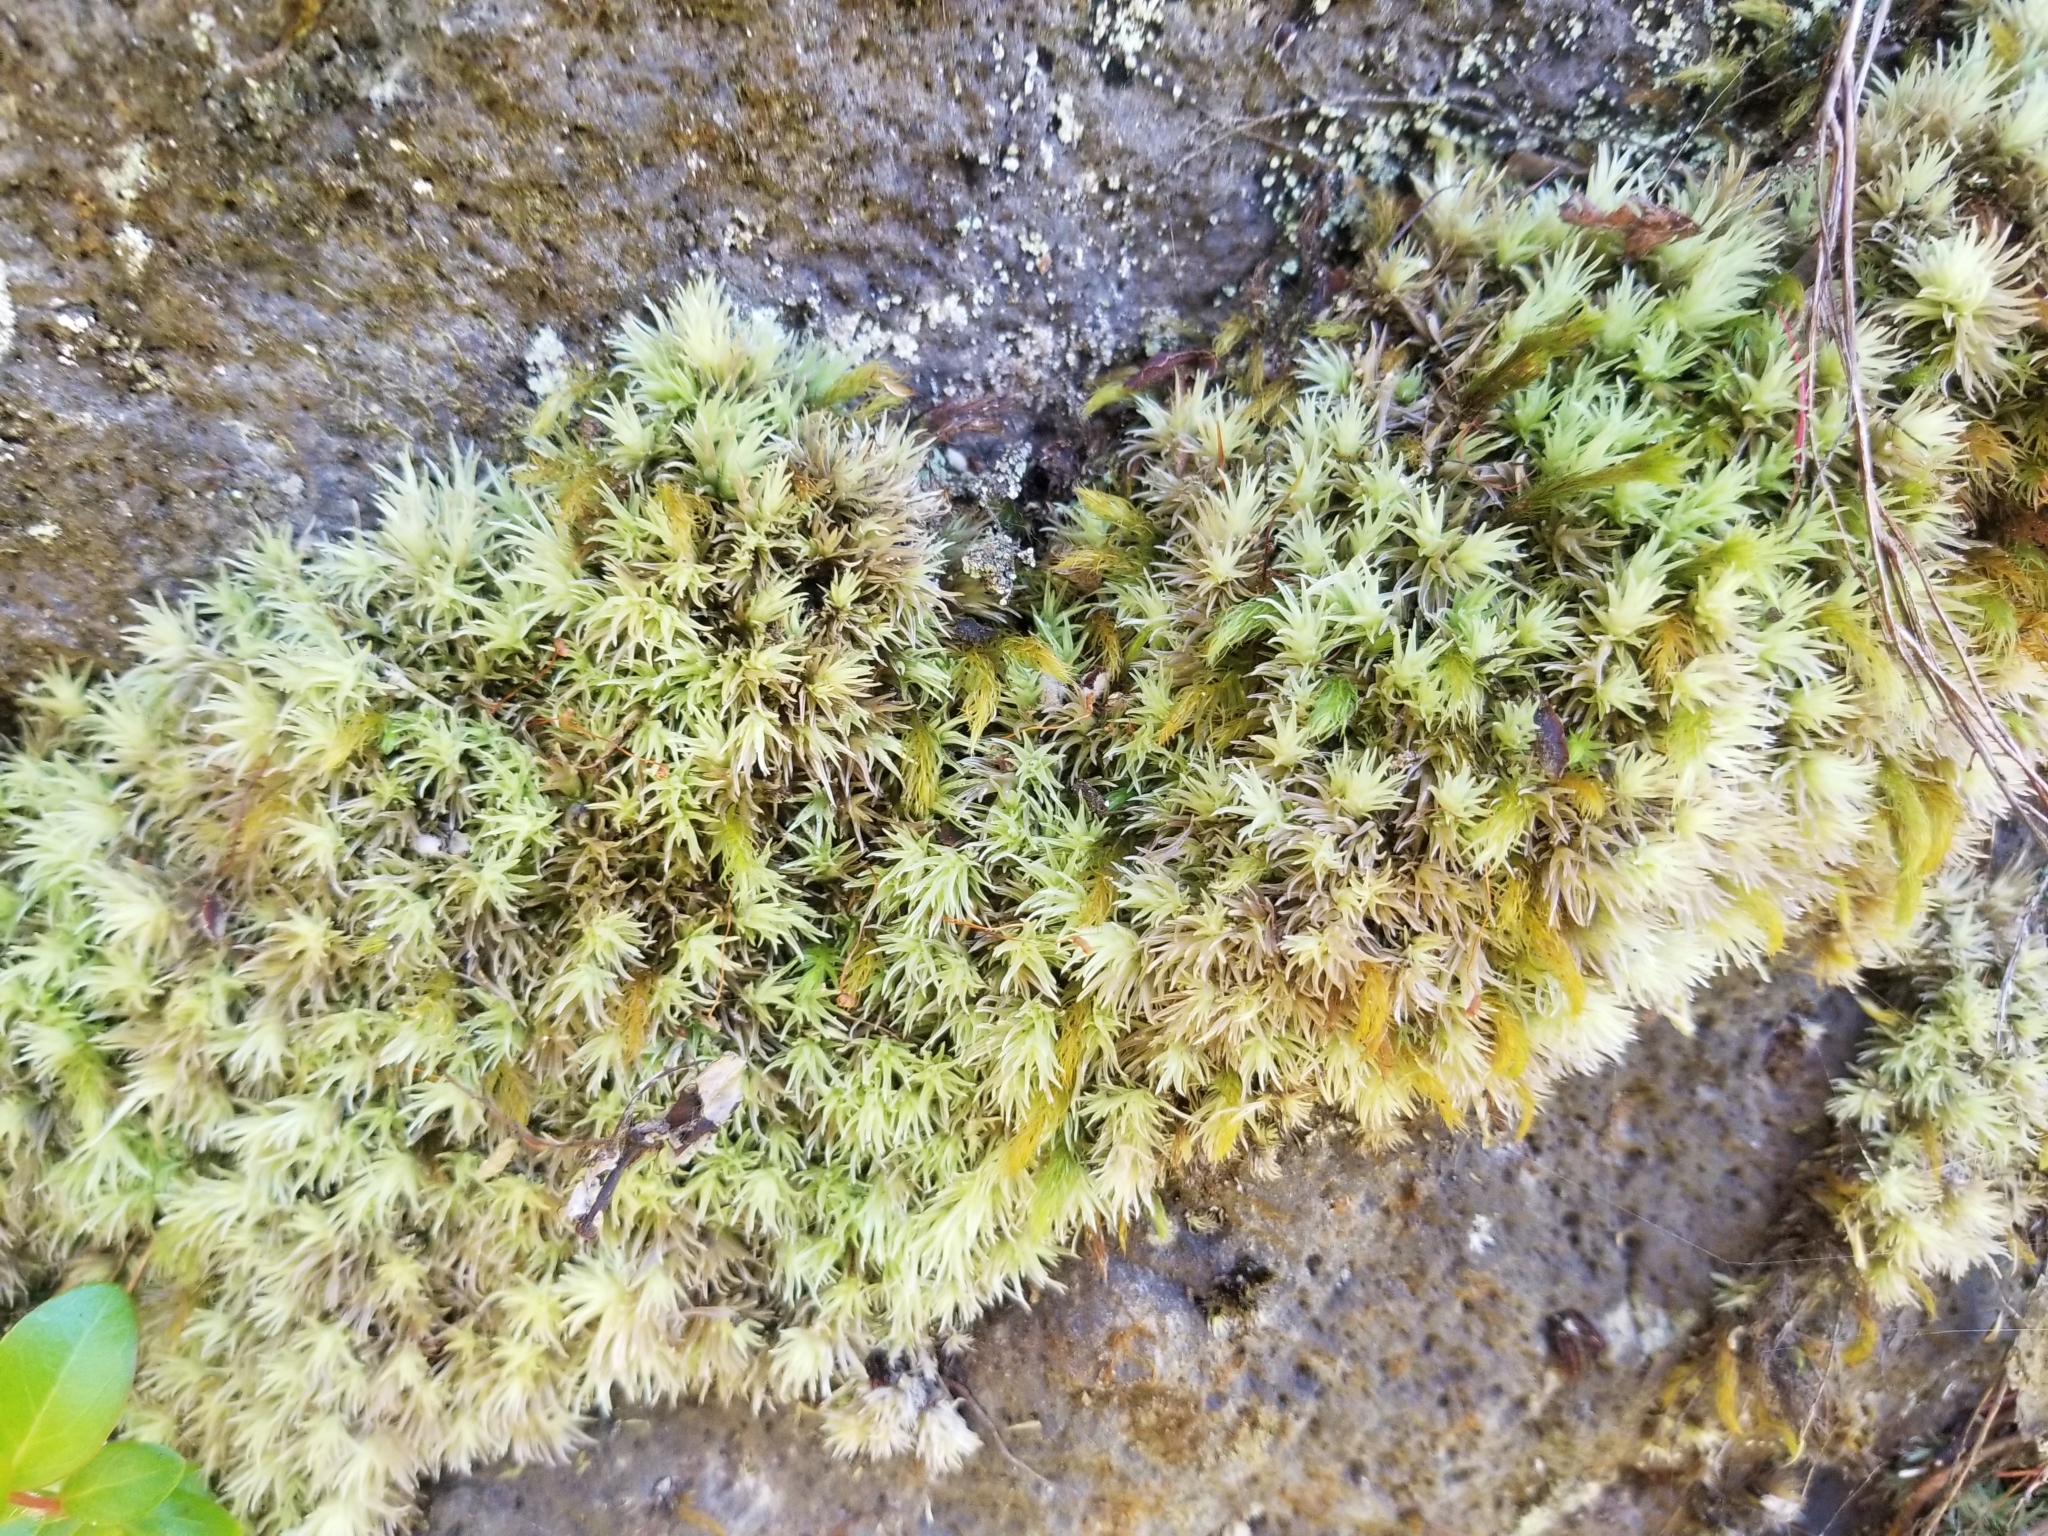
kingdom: Plantae
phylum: Bryophyta
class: Bryopsida
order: Dicranales
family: Leucobryaceae
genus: Leucobryum
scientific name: Leucobryum gracile
